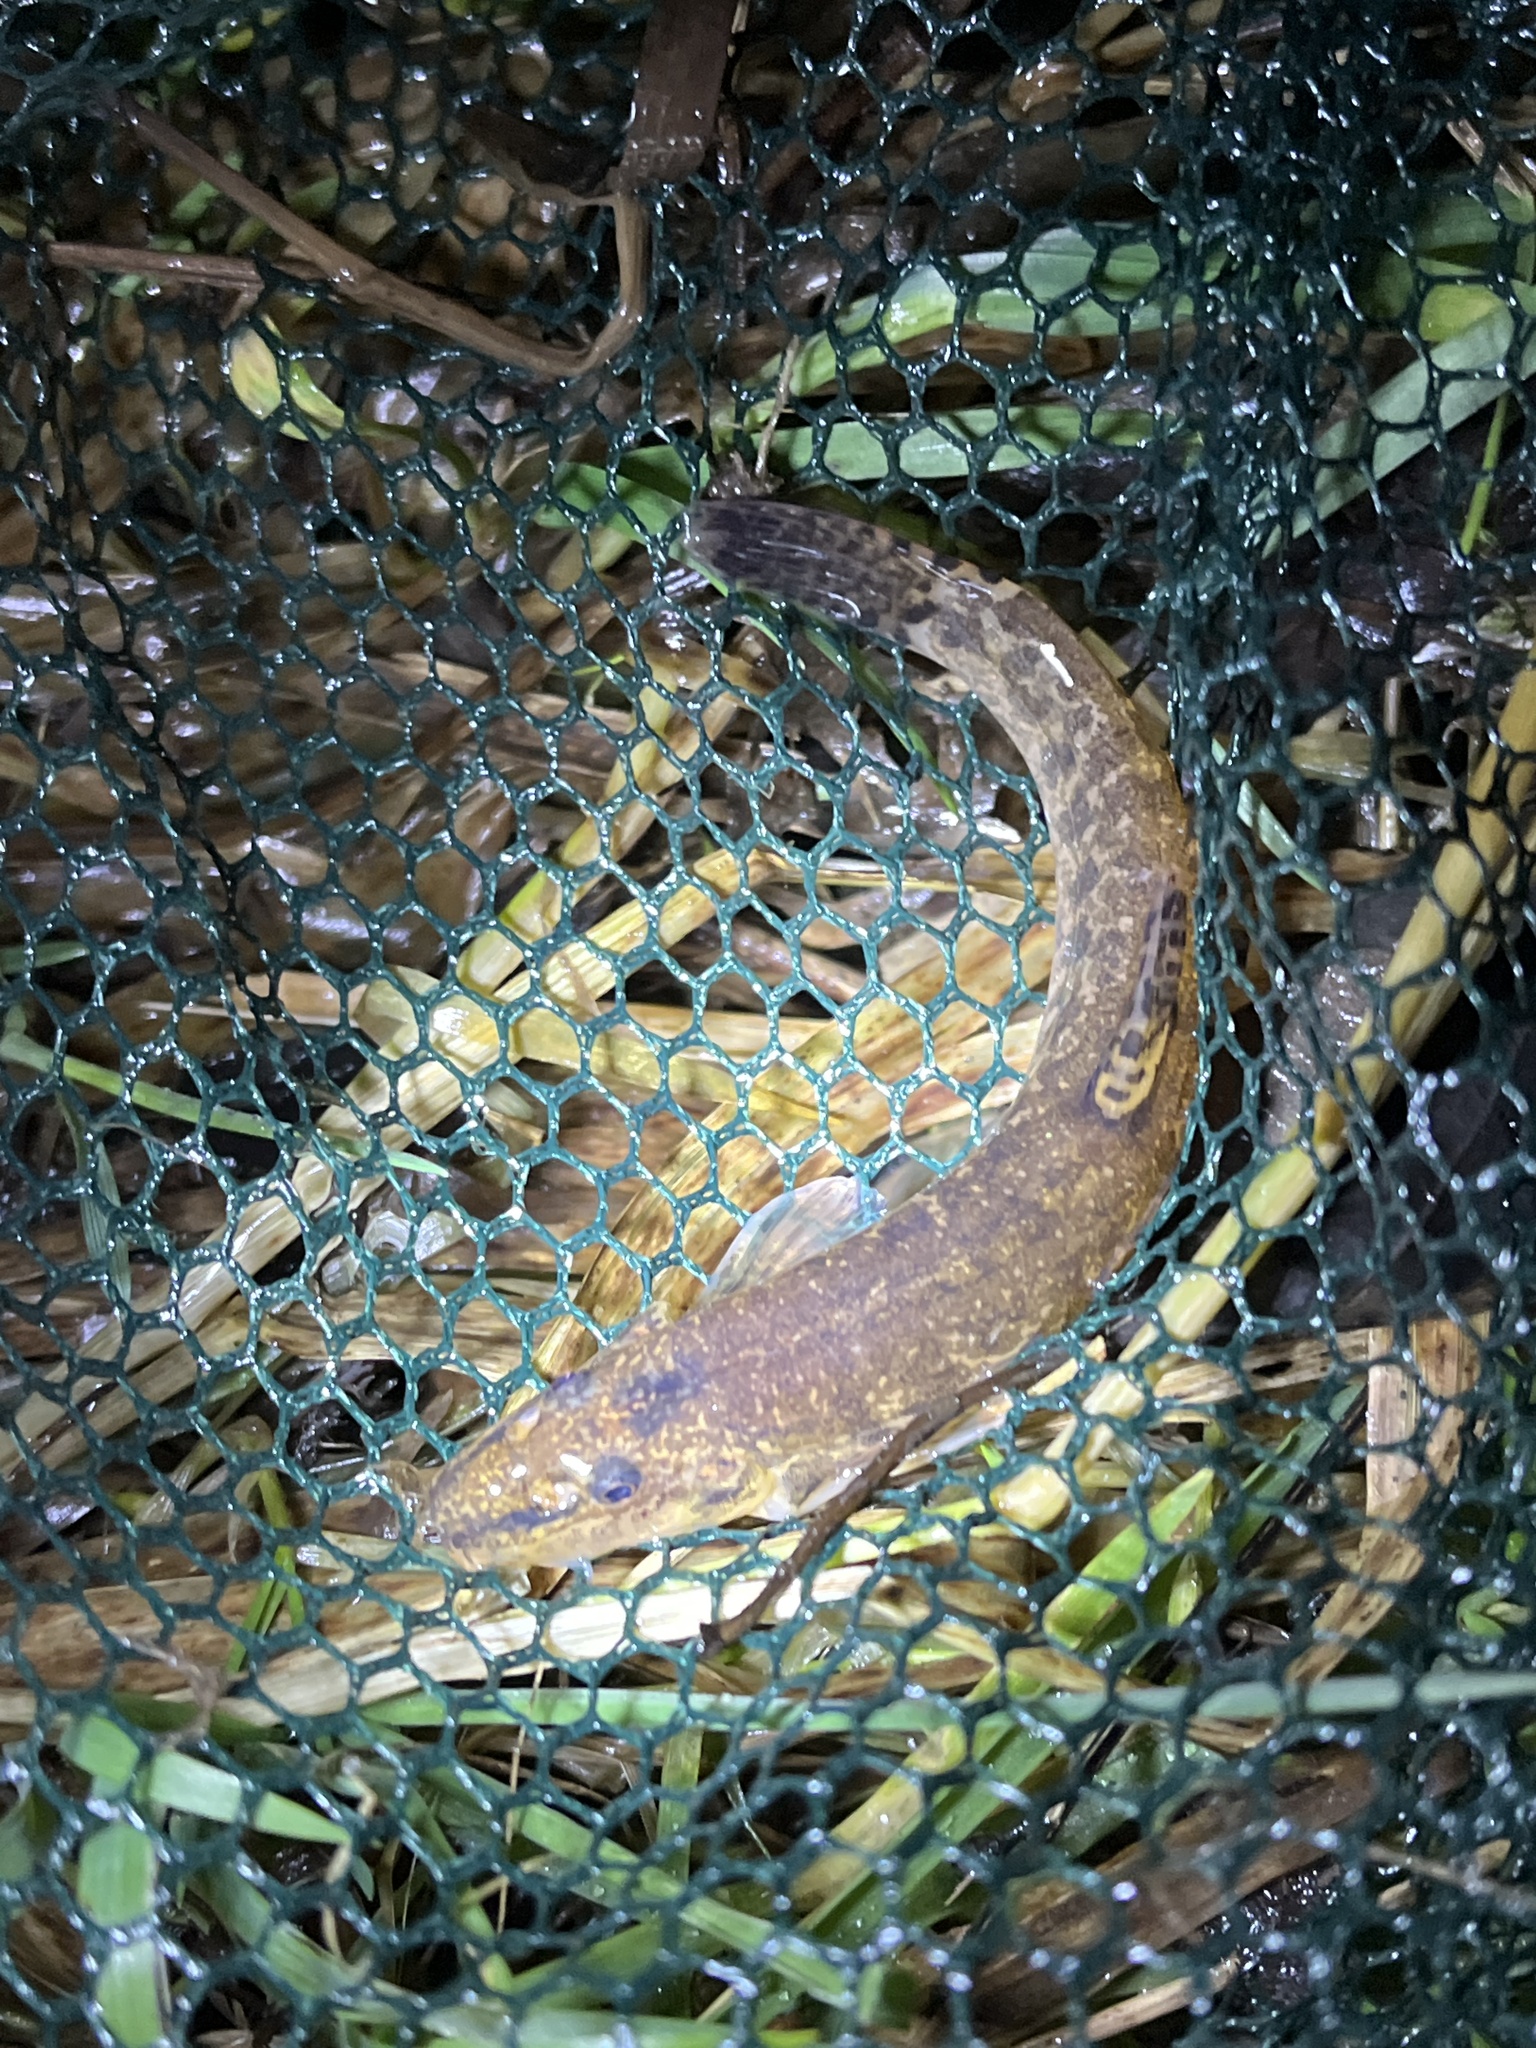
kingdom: Animalia
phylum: Chordata
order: Cypriniformes
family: Nemacheilidae
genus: Barbatula
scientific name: Barbatula barbatula
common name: Stone loach
